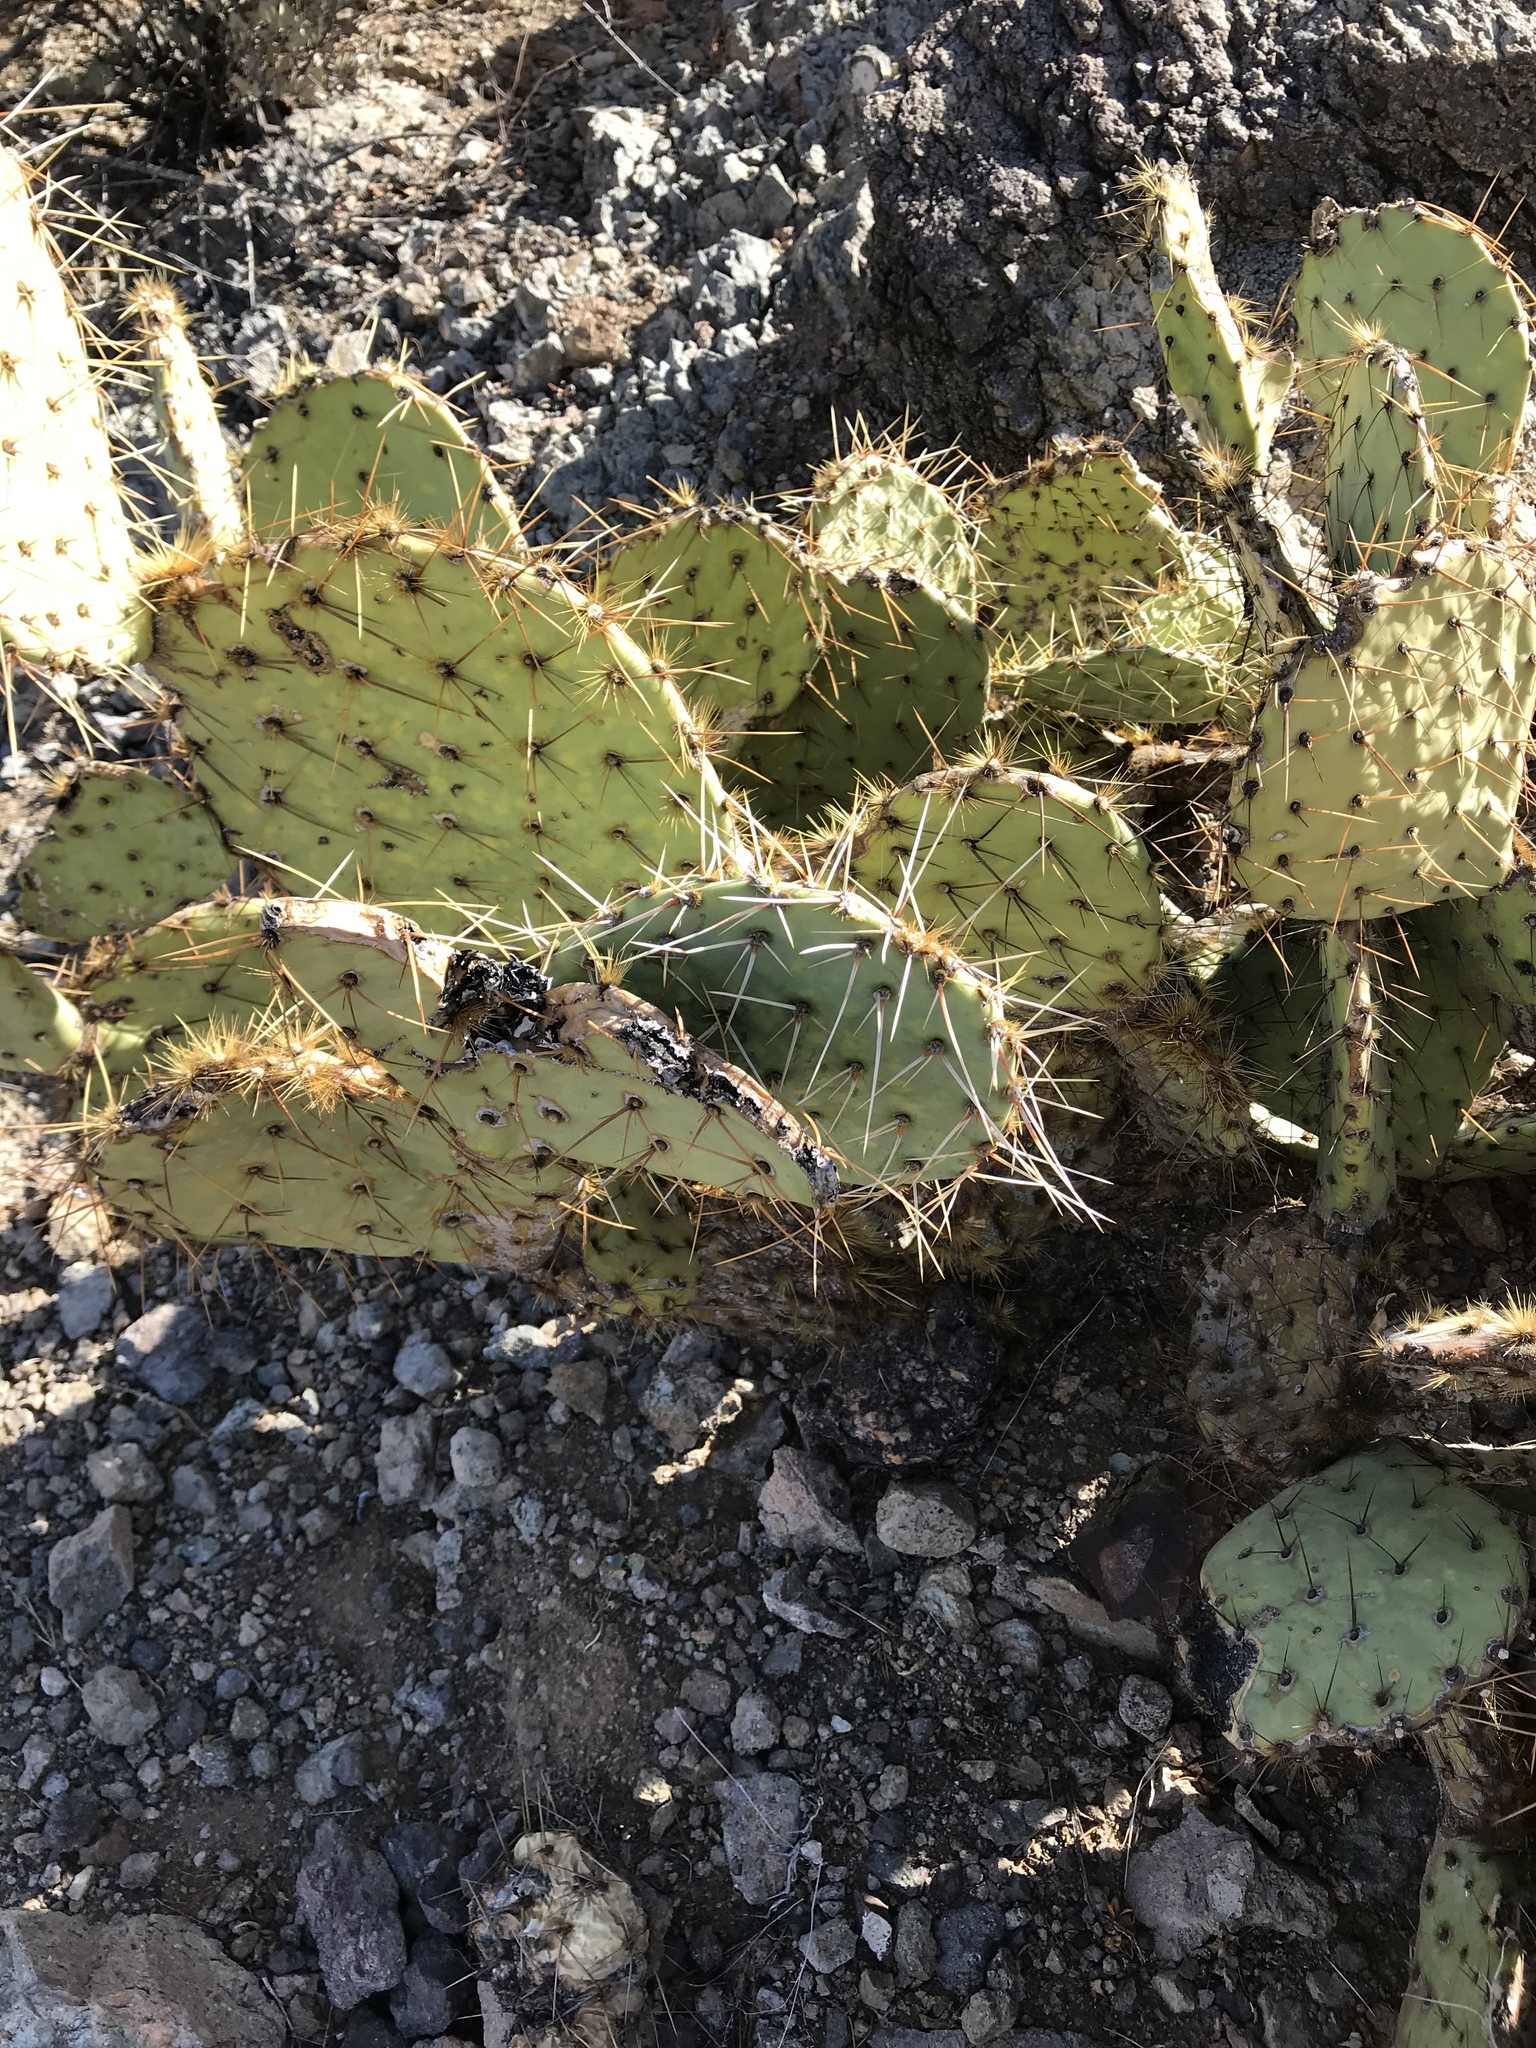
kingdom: Plantae
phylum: Tracheophyta
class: Magnoliopsida
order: Caryophyllales
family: Cactaceae
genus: Opuntia
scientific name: Opuntia engelmannii
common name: Cactus-apple
